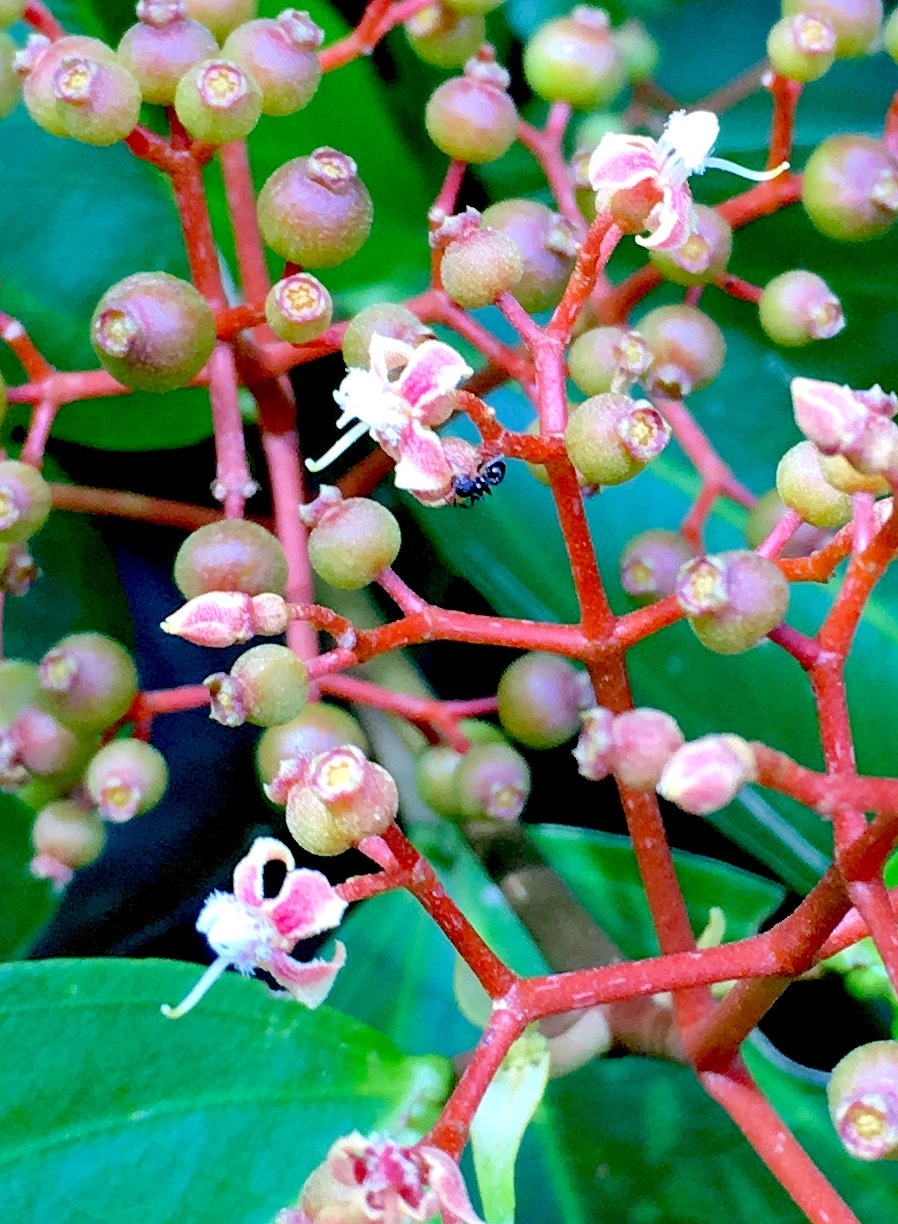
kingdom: Plantae
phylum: Tracheophyta
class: Magnoliopsida
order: Myrtales
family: Melastomataceae
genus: Pachycentria
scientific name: Pachycentria pulverulenta
